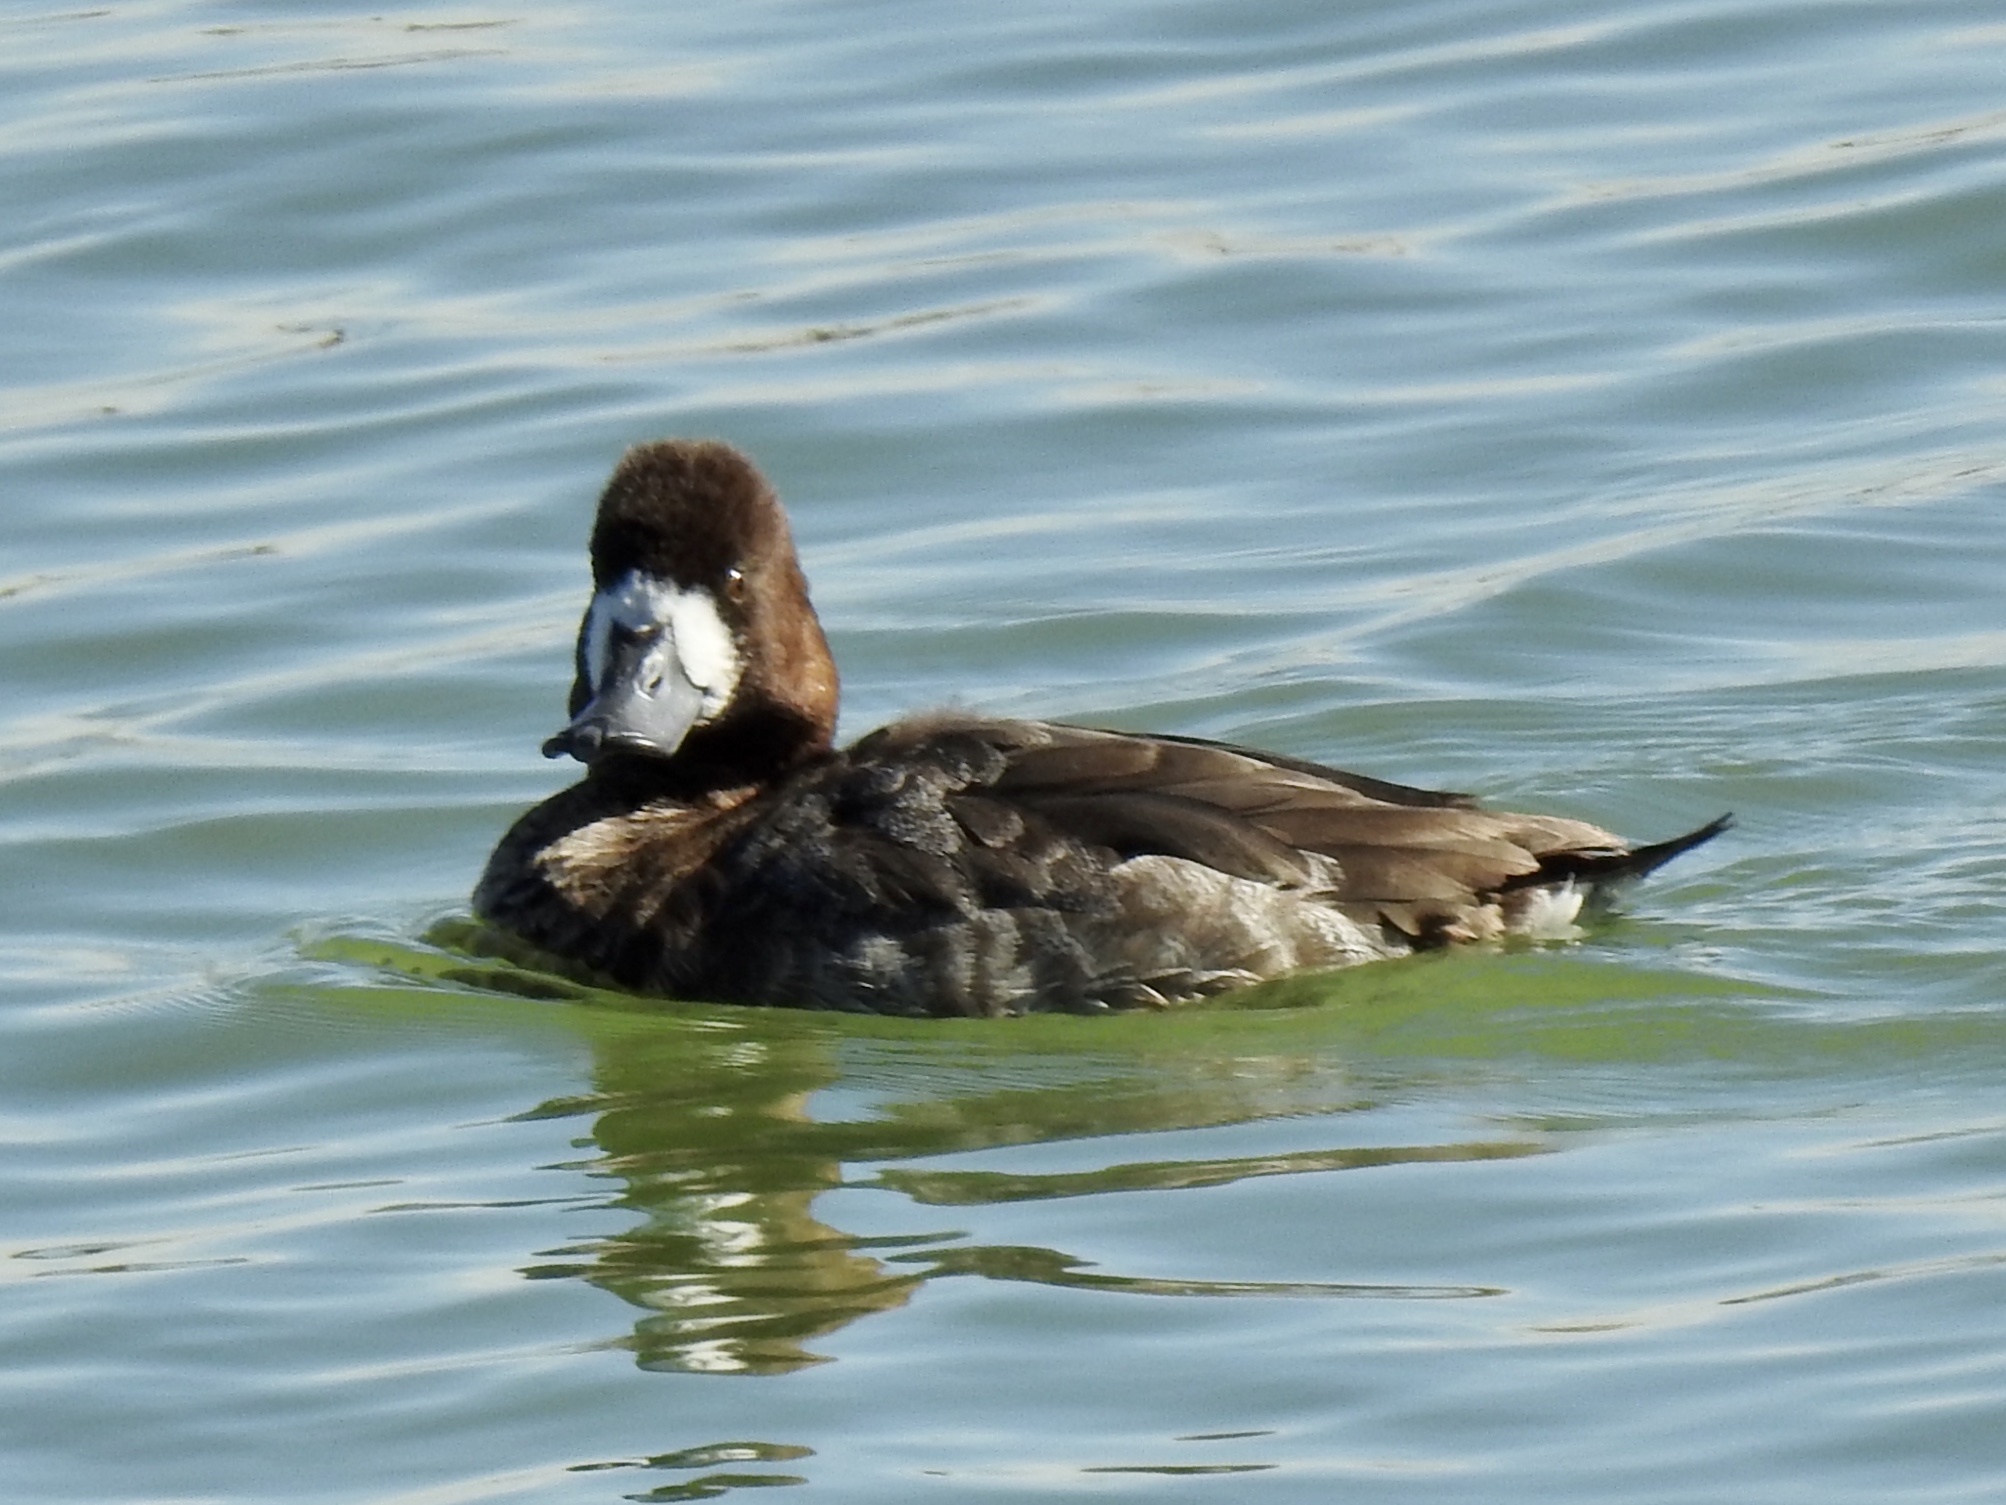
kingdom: Animalia
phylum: Chordata
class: Aves
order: Anseriformes
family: Anatidae
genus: Aythya
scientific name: Aythya affinis
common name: Lesser scaup
